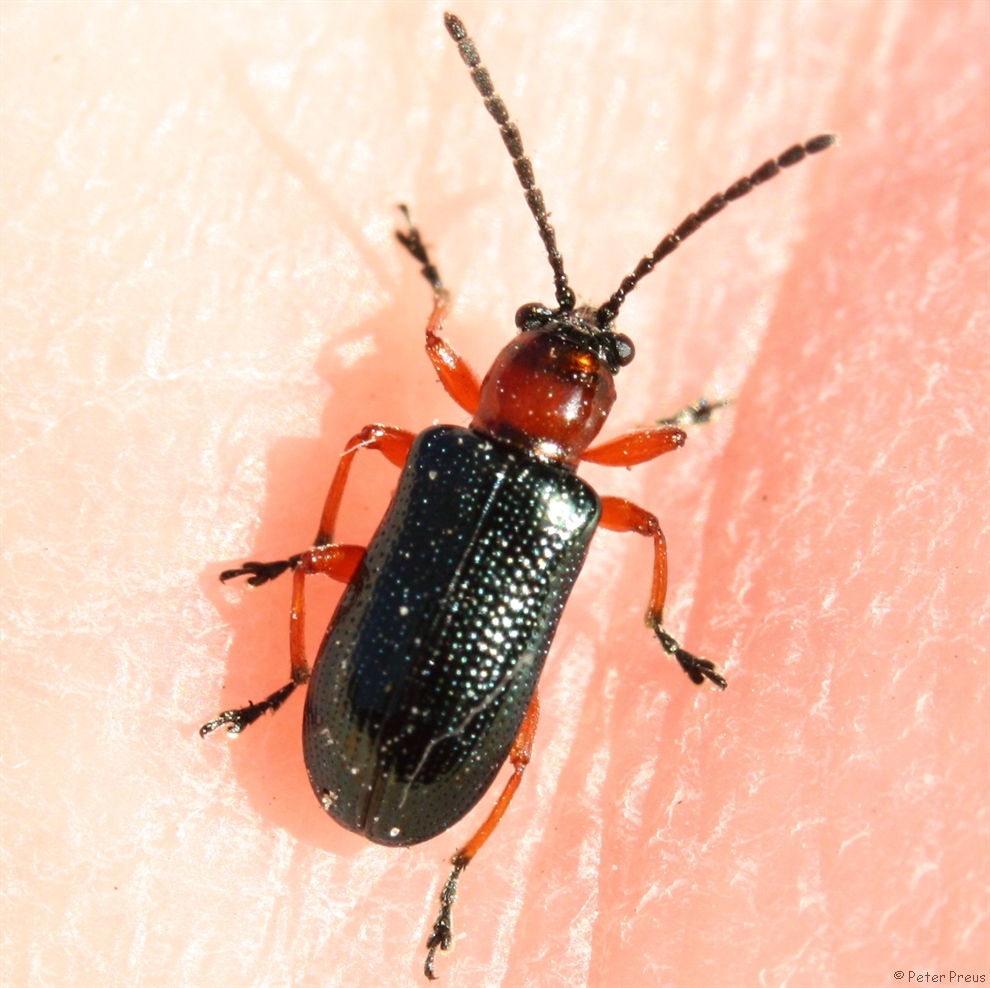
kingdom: Animalia
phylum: Arthropoda
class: Insecta
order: Coleoptera
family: Chrysomelidae
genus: Oulema
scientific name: Oulema
